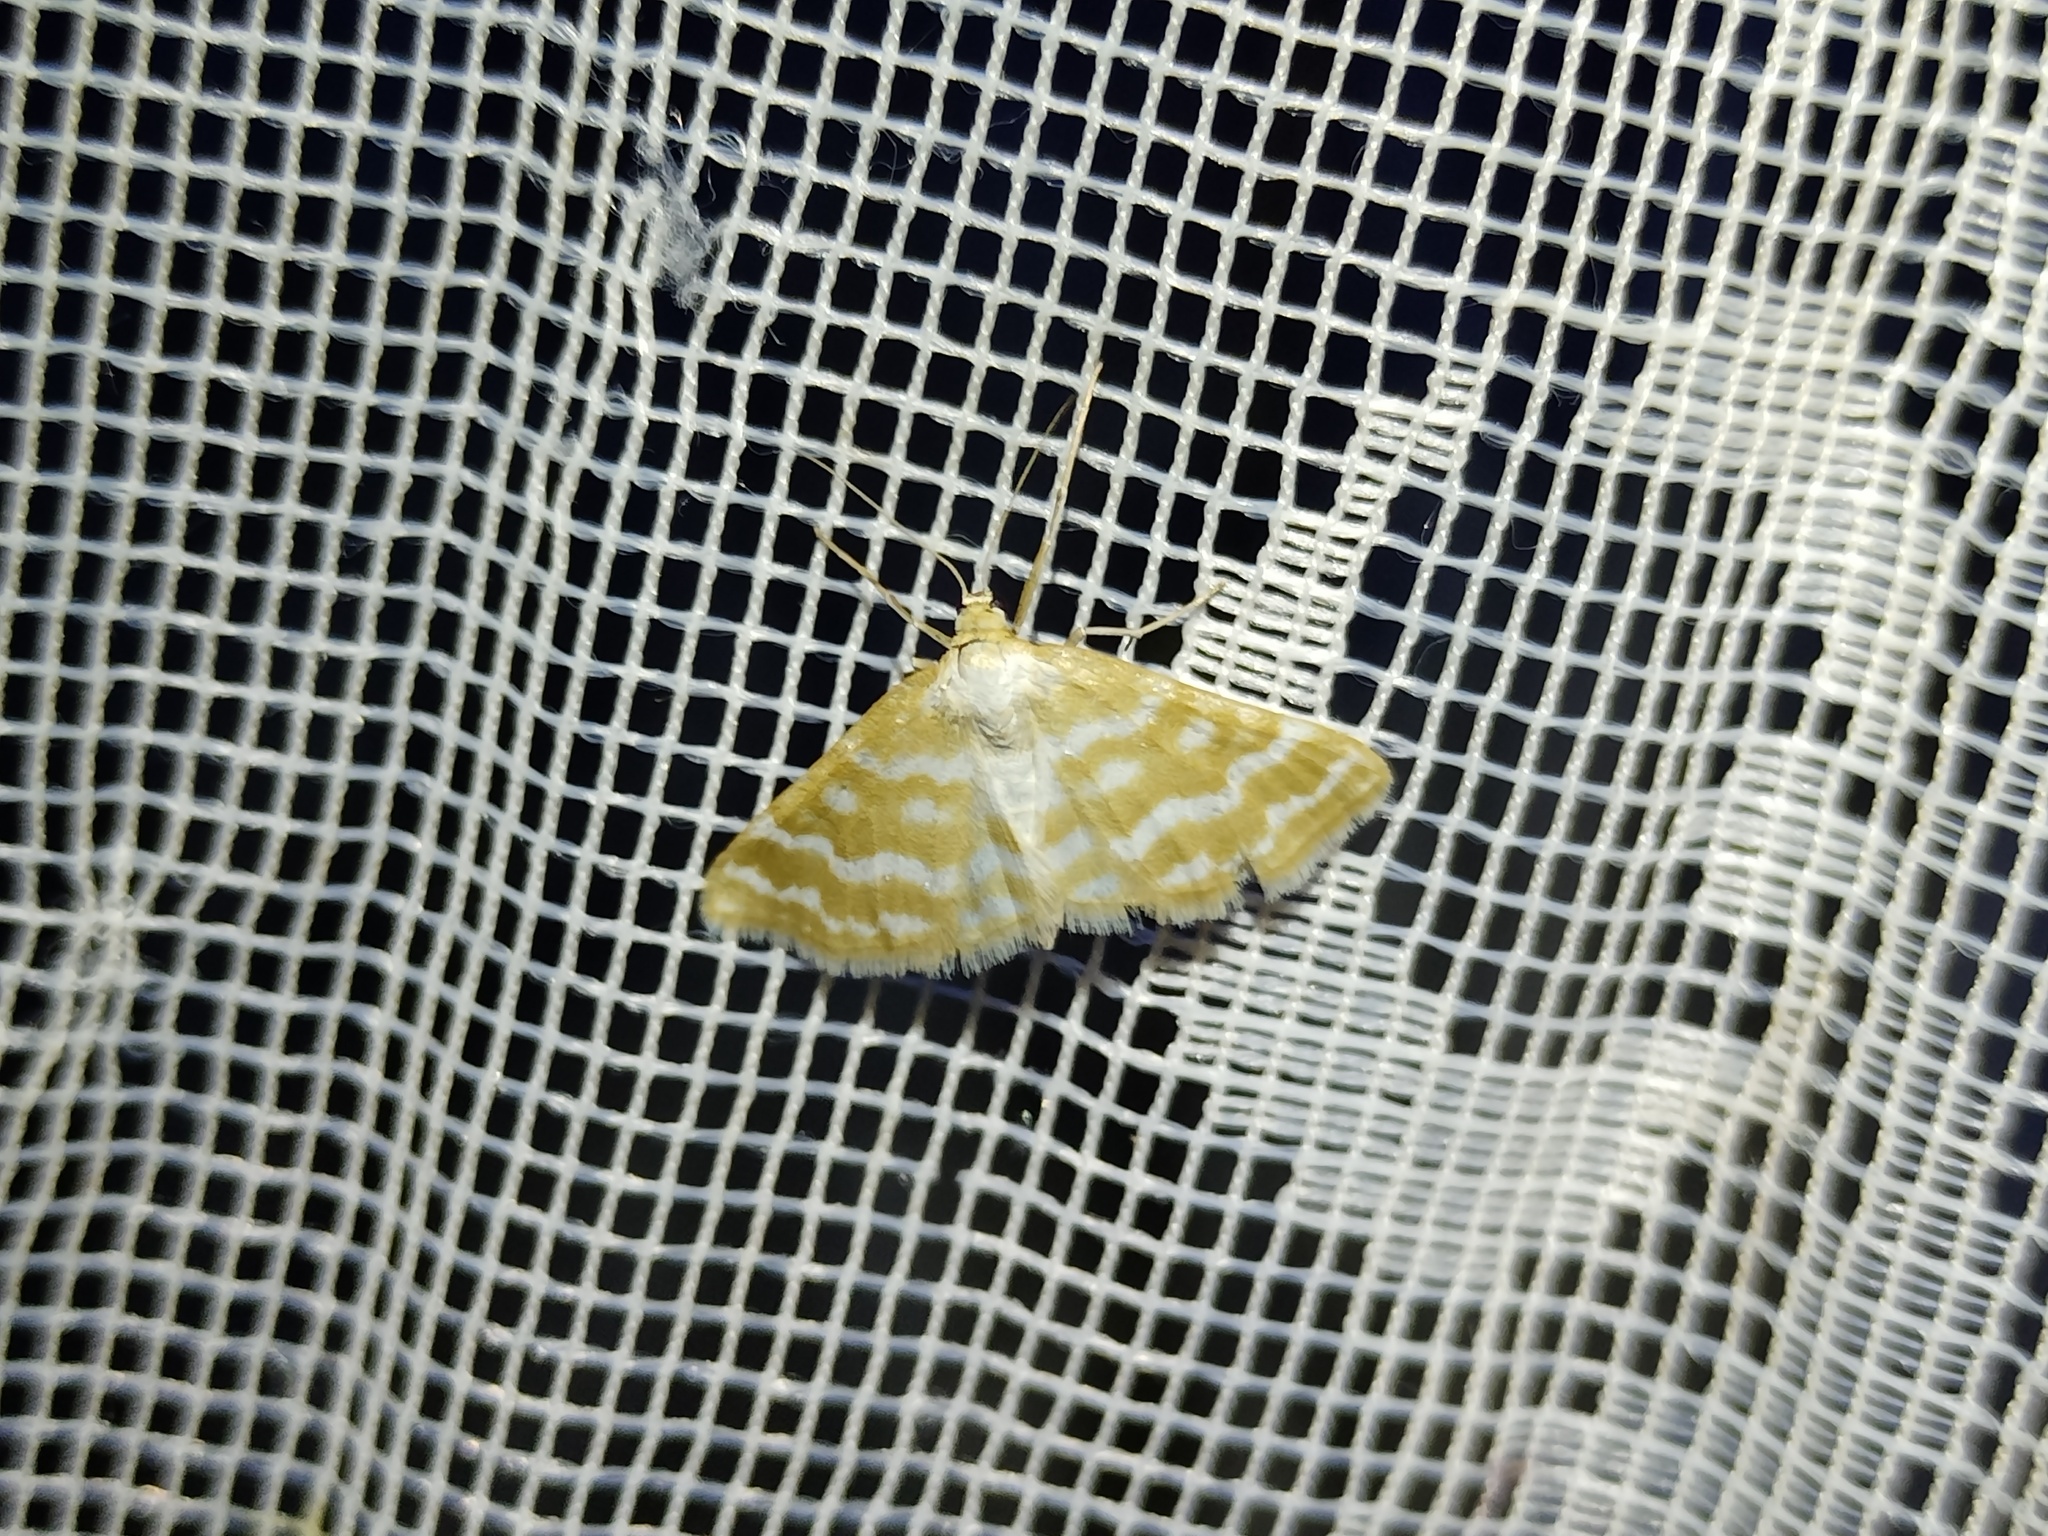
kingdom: Animalia
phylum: Arthropoda
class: Insecta
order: Lepidoptera
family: Geometridae
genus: Idaea
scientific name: Idaea sericeata
